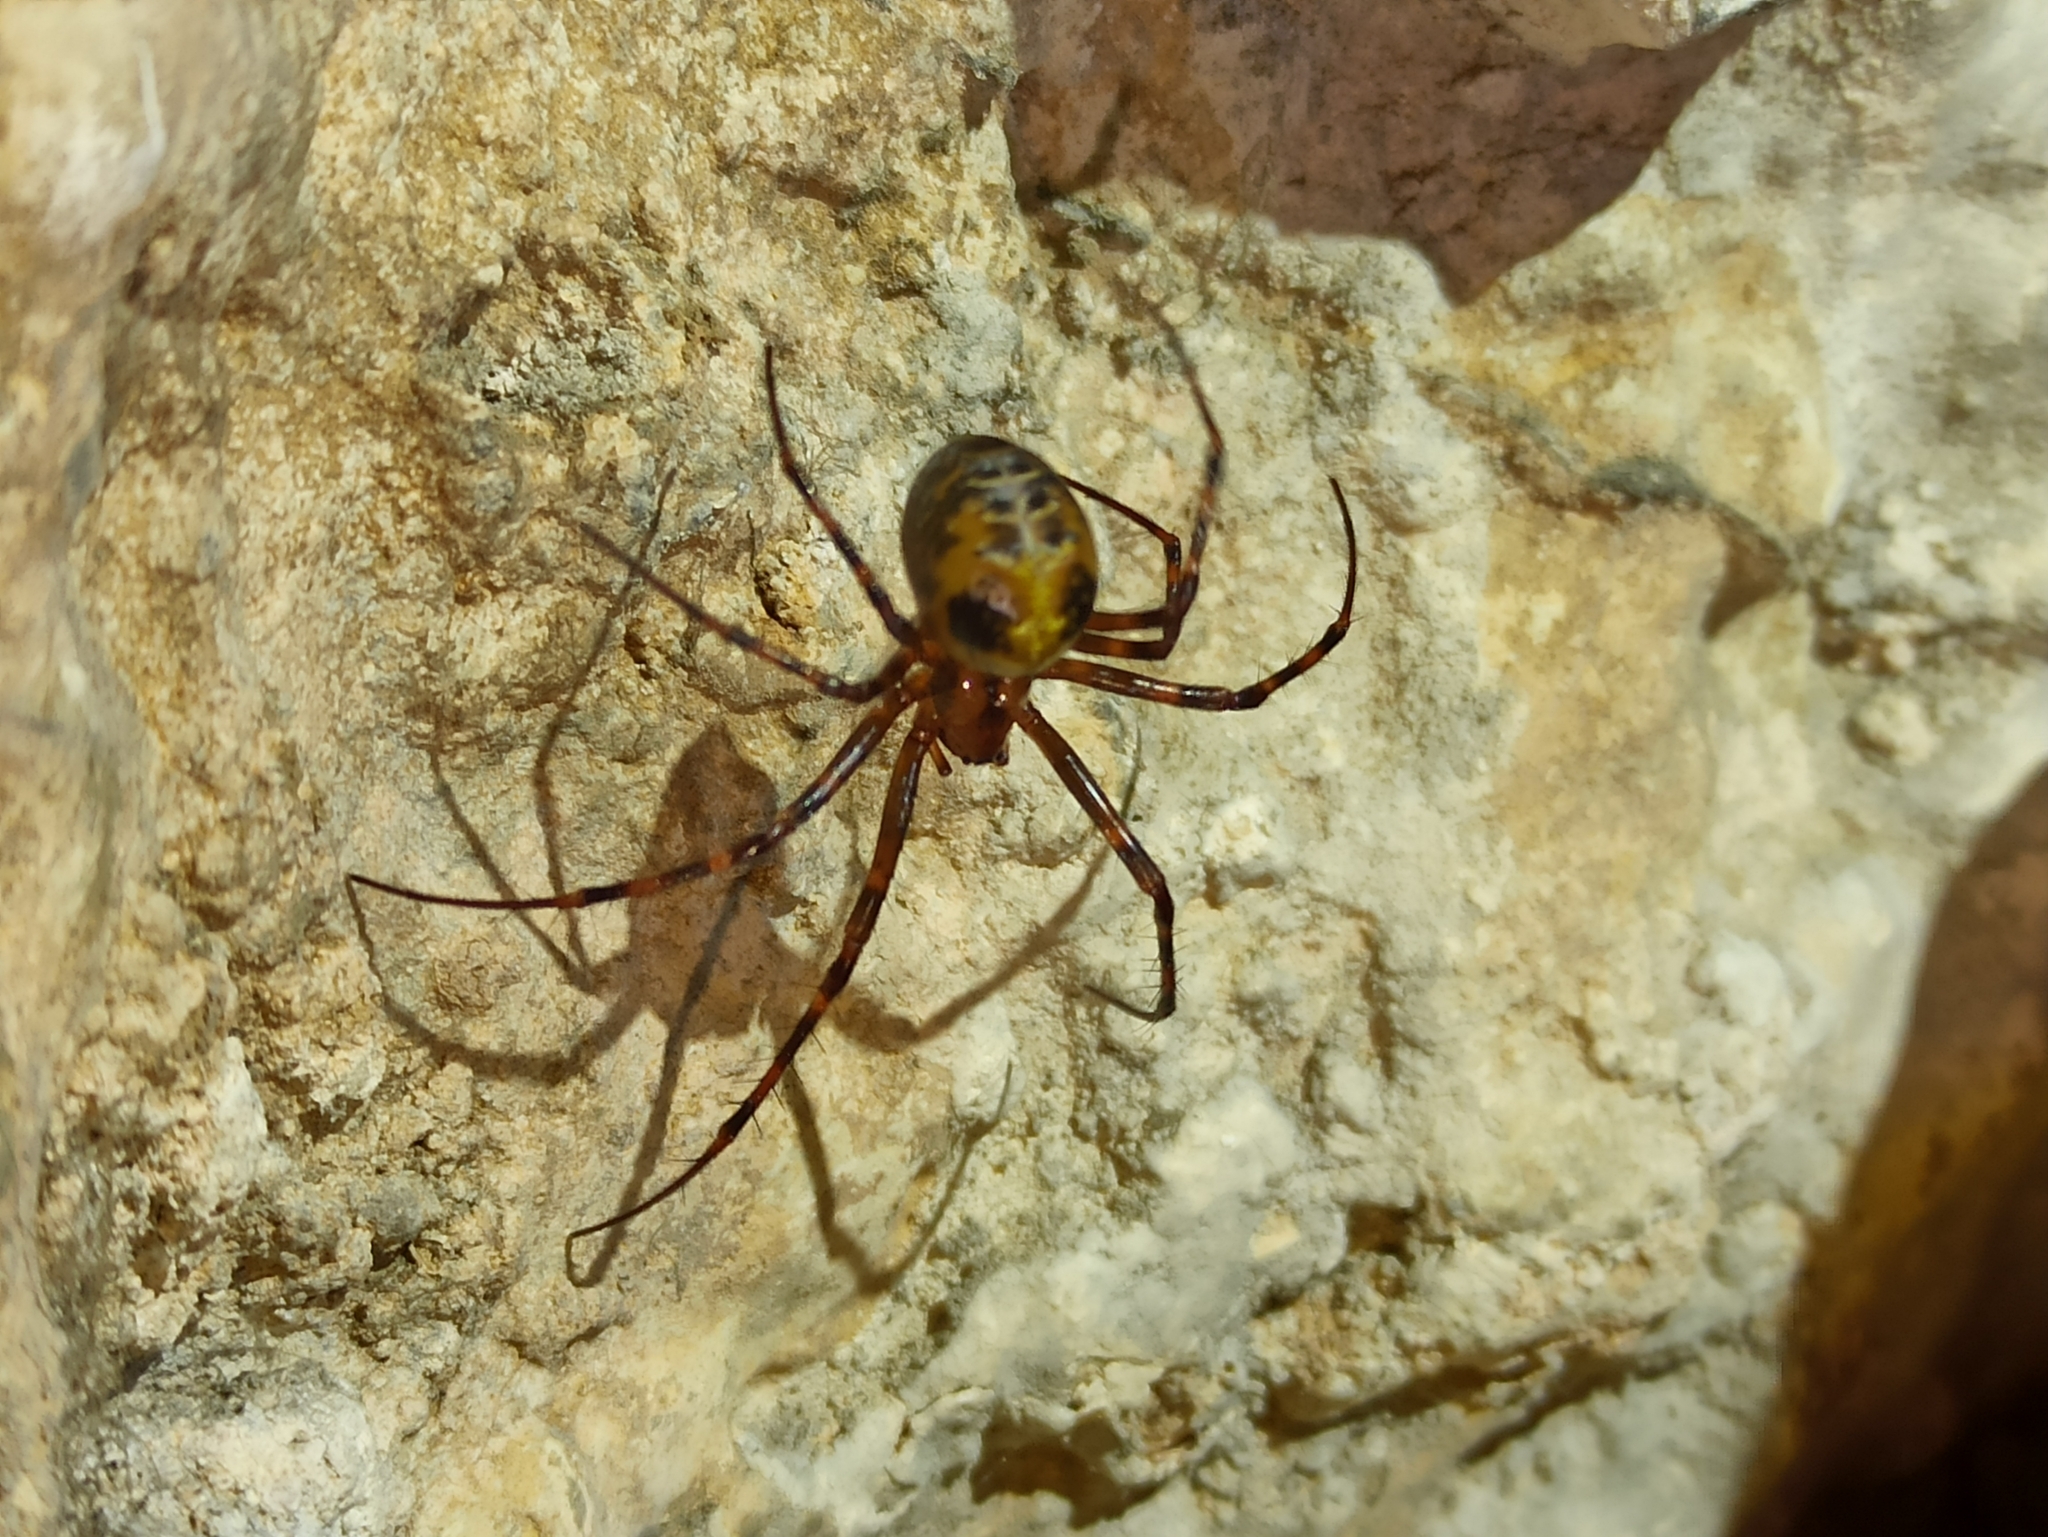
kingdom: Animalia
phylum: Arthropoda
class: Arachnida
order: Araneae
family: Tetragnathidae
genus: Meta
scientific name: Meta menardi
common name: Cave spider
